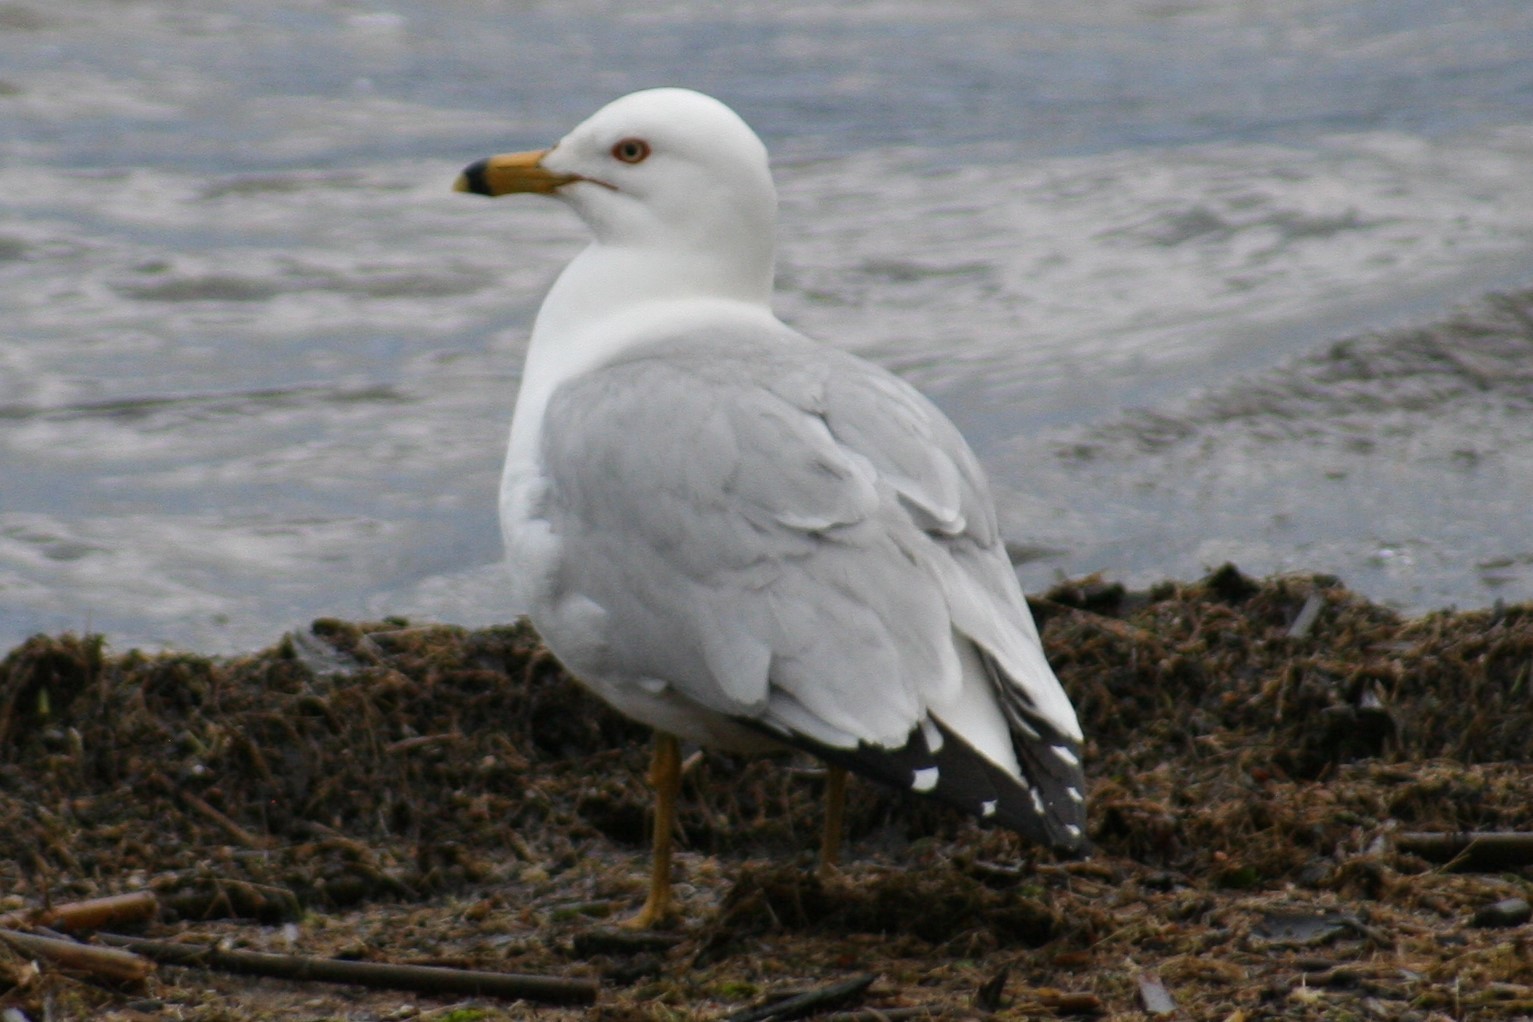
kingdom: Animalia
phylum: Chordata
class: Aves
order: Charadriiformes
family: Laridae
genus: Larus
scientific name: Larus delawarensis
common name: Ring-billed gull
